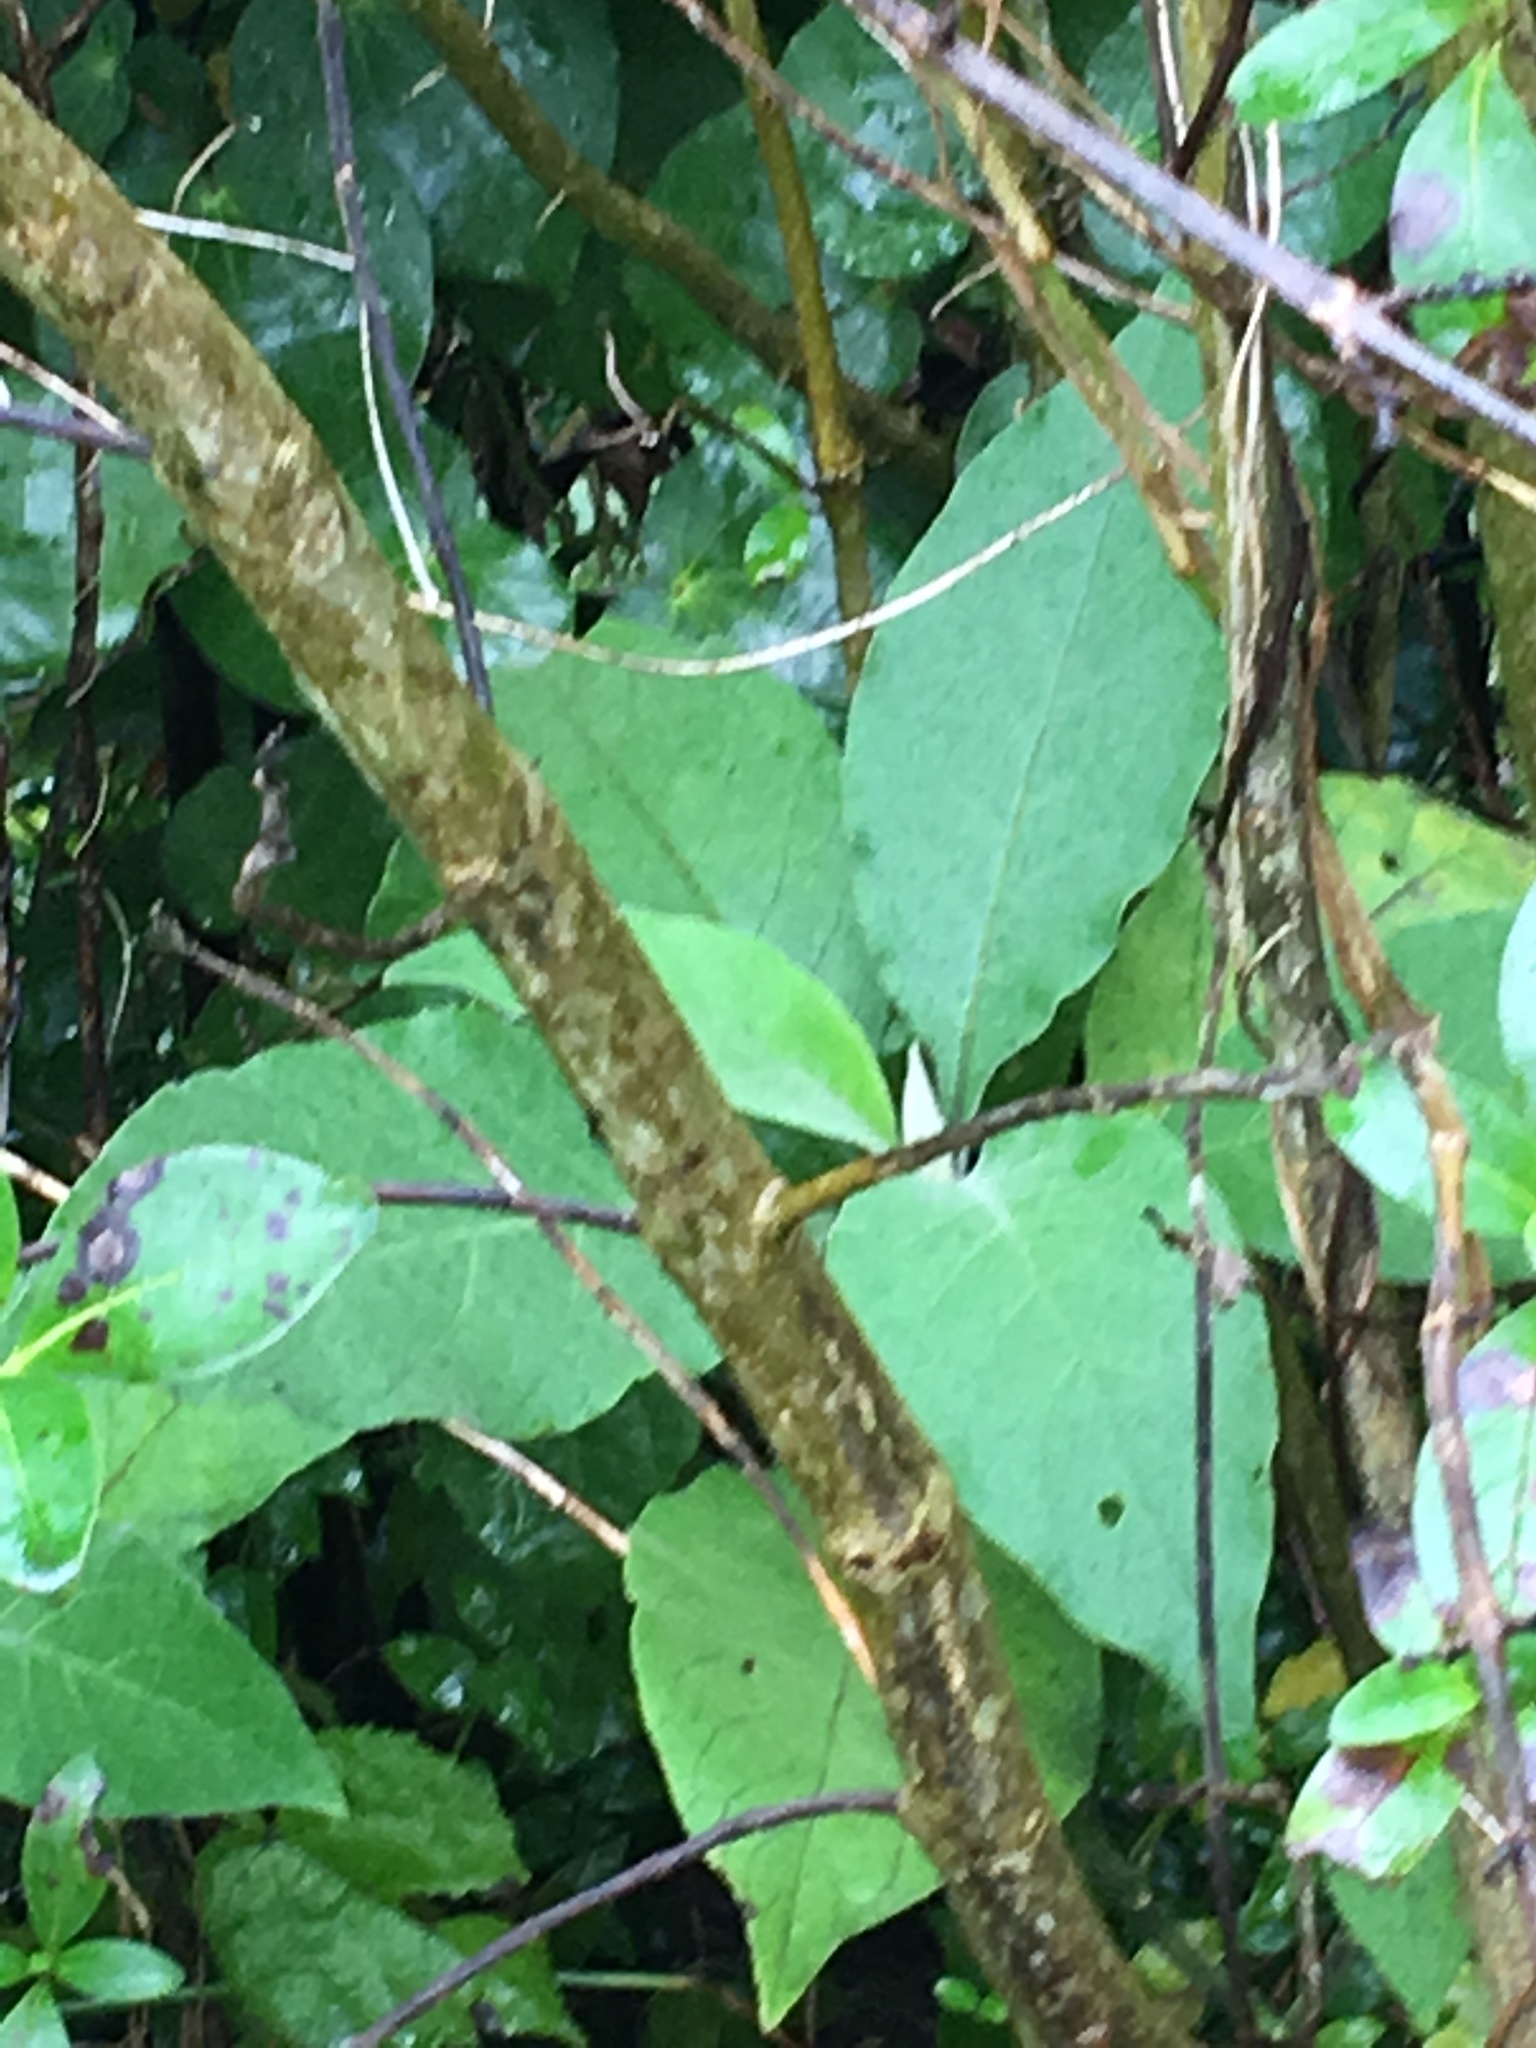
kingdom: Plantae
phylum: Tracheophyta
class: Magnoliopsida
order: Solanales
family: Solanaceae
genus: Solanum
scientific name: Solanum mauritianum
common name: Earleaf nightshade
